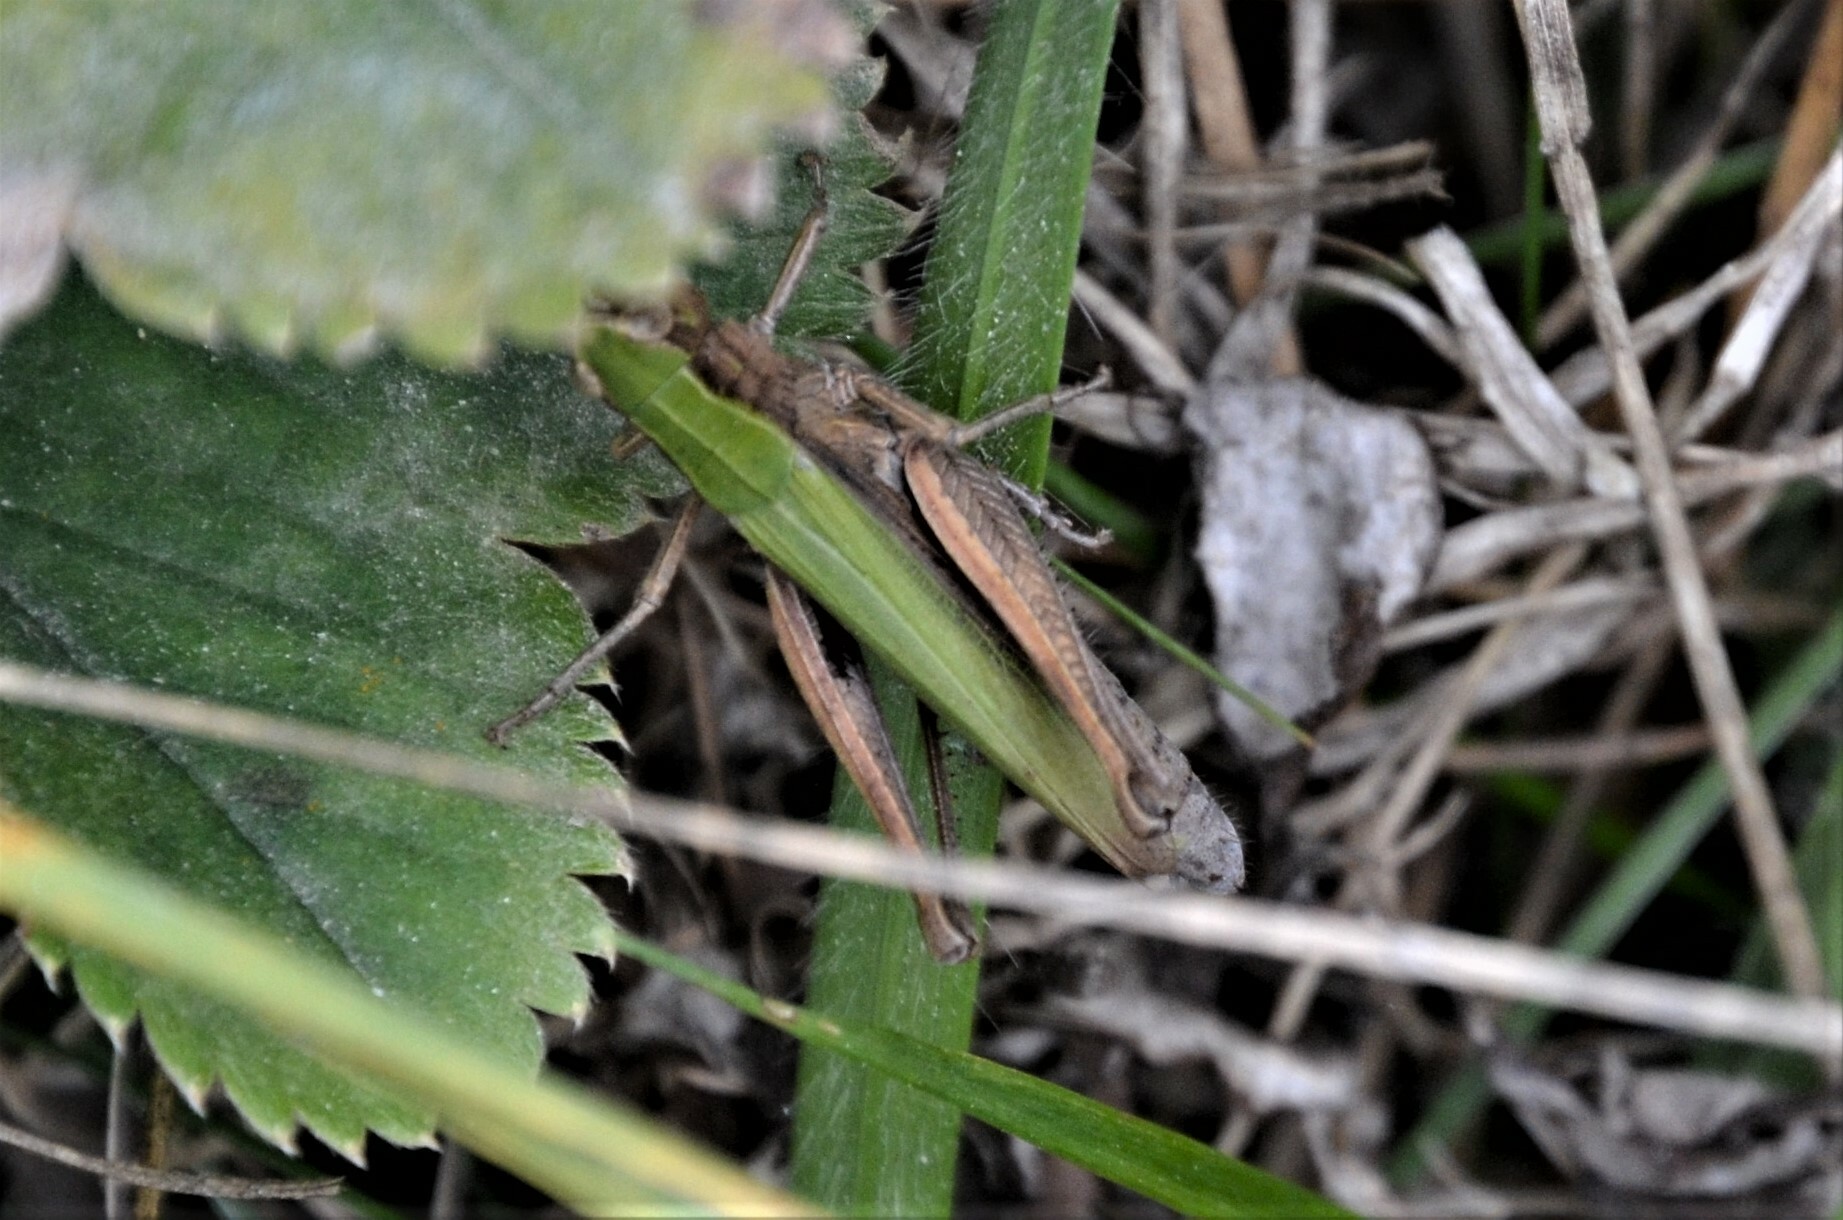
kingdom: Animalia
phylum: Arthropoda
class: Insecta
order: Orthoptera
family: Acrididae
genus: Chorthippus
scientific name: Chorthippus dorsatus
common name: Steppe grasshopper
